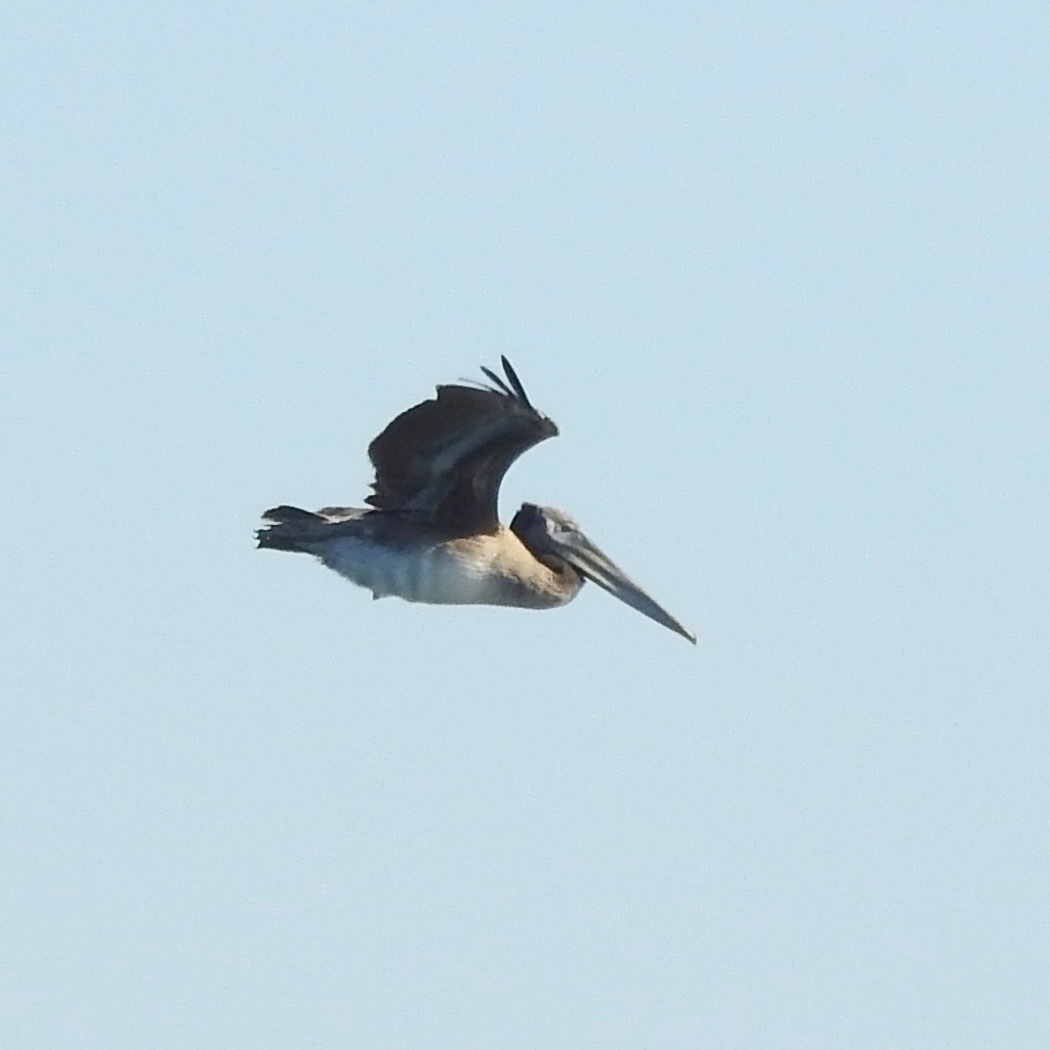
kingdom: Animalia
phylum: Chordata
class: Aves
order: Pelecaniformes
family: Pelecanidae
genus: Pelecanus
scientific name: Pelecanus occidentalis
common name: Brown pelican
